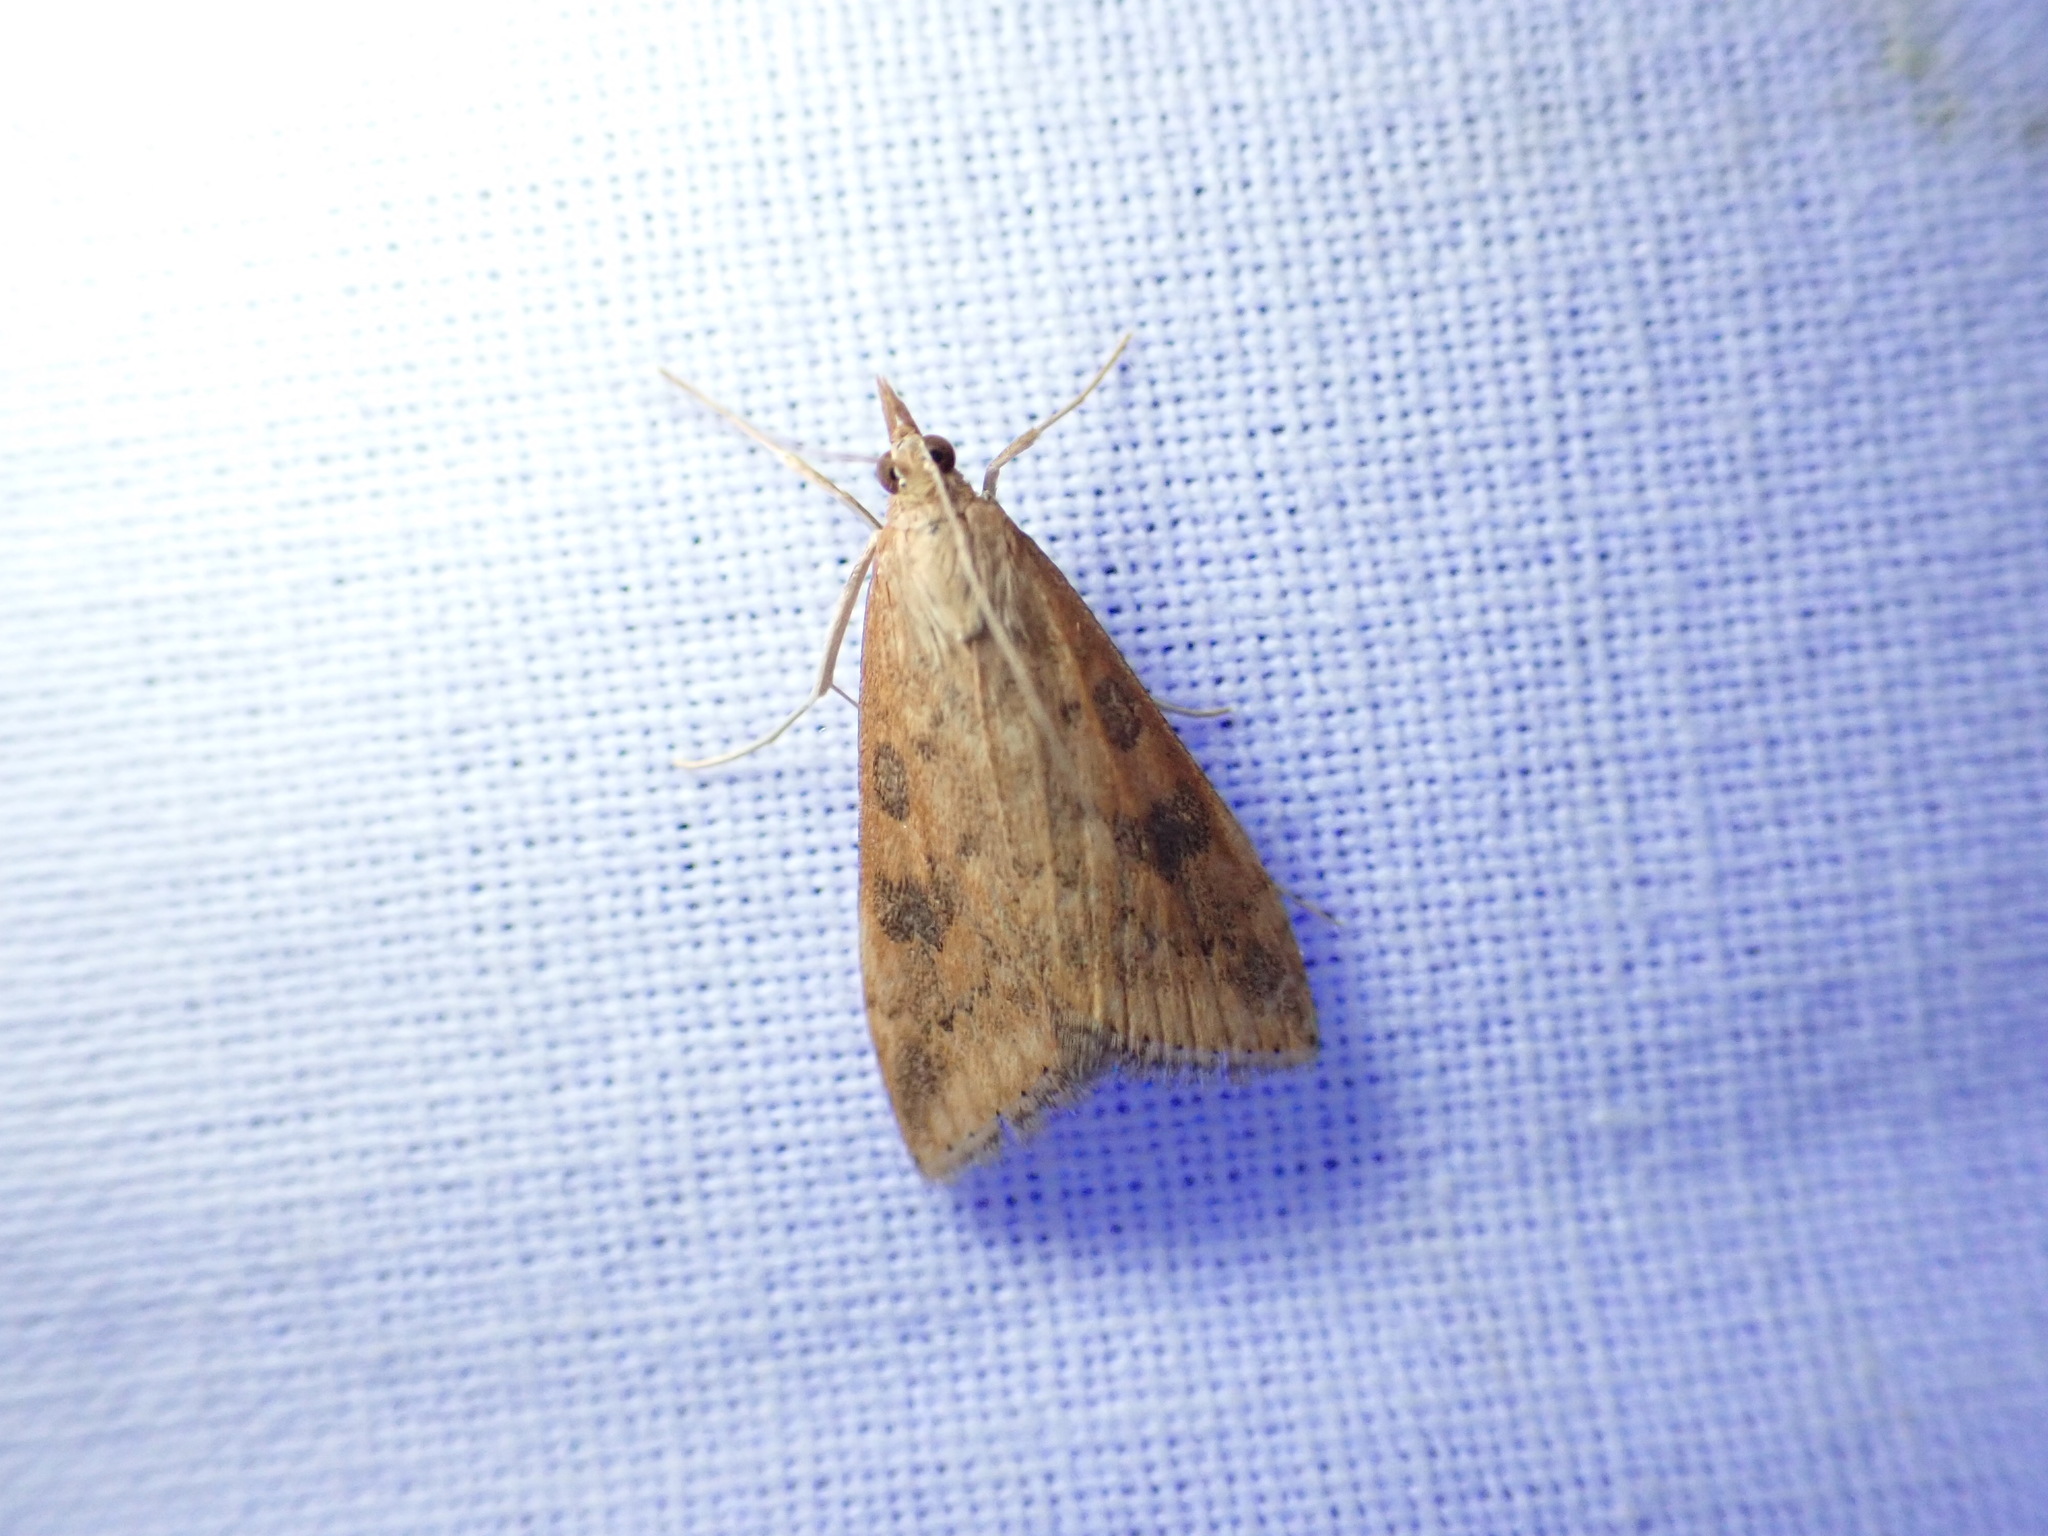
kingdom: Animalia
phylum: Arthropoda
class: Insecta
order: Lepidoptera
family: Crambidae
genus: Udea
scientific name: Udea ferrugalis
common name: Rusty dot
